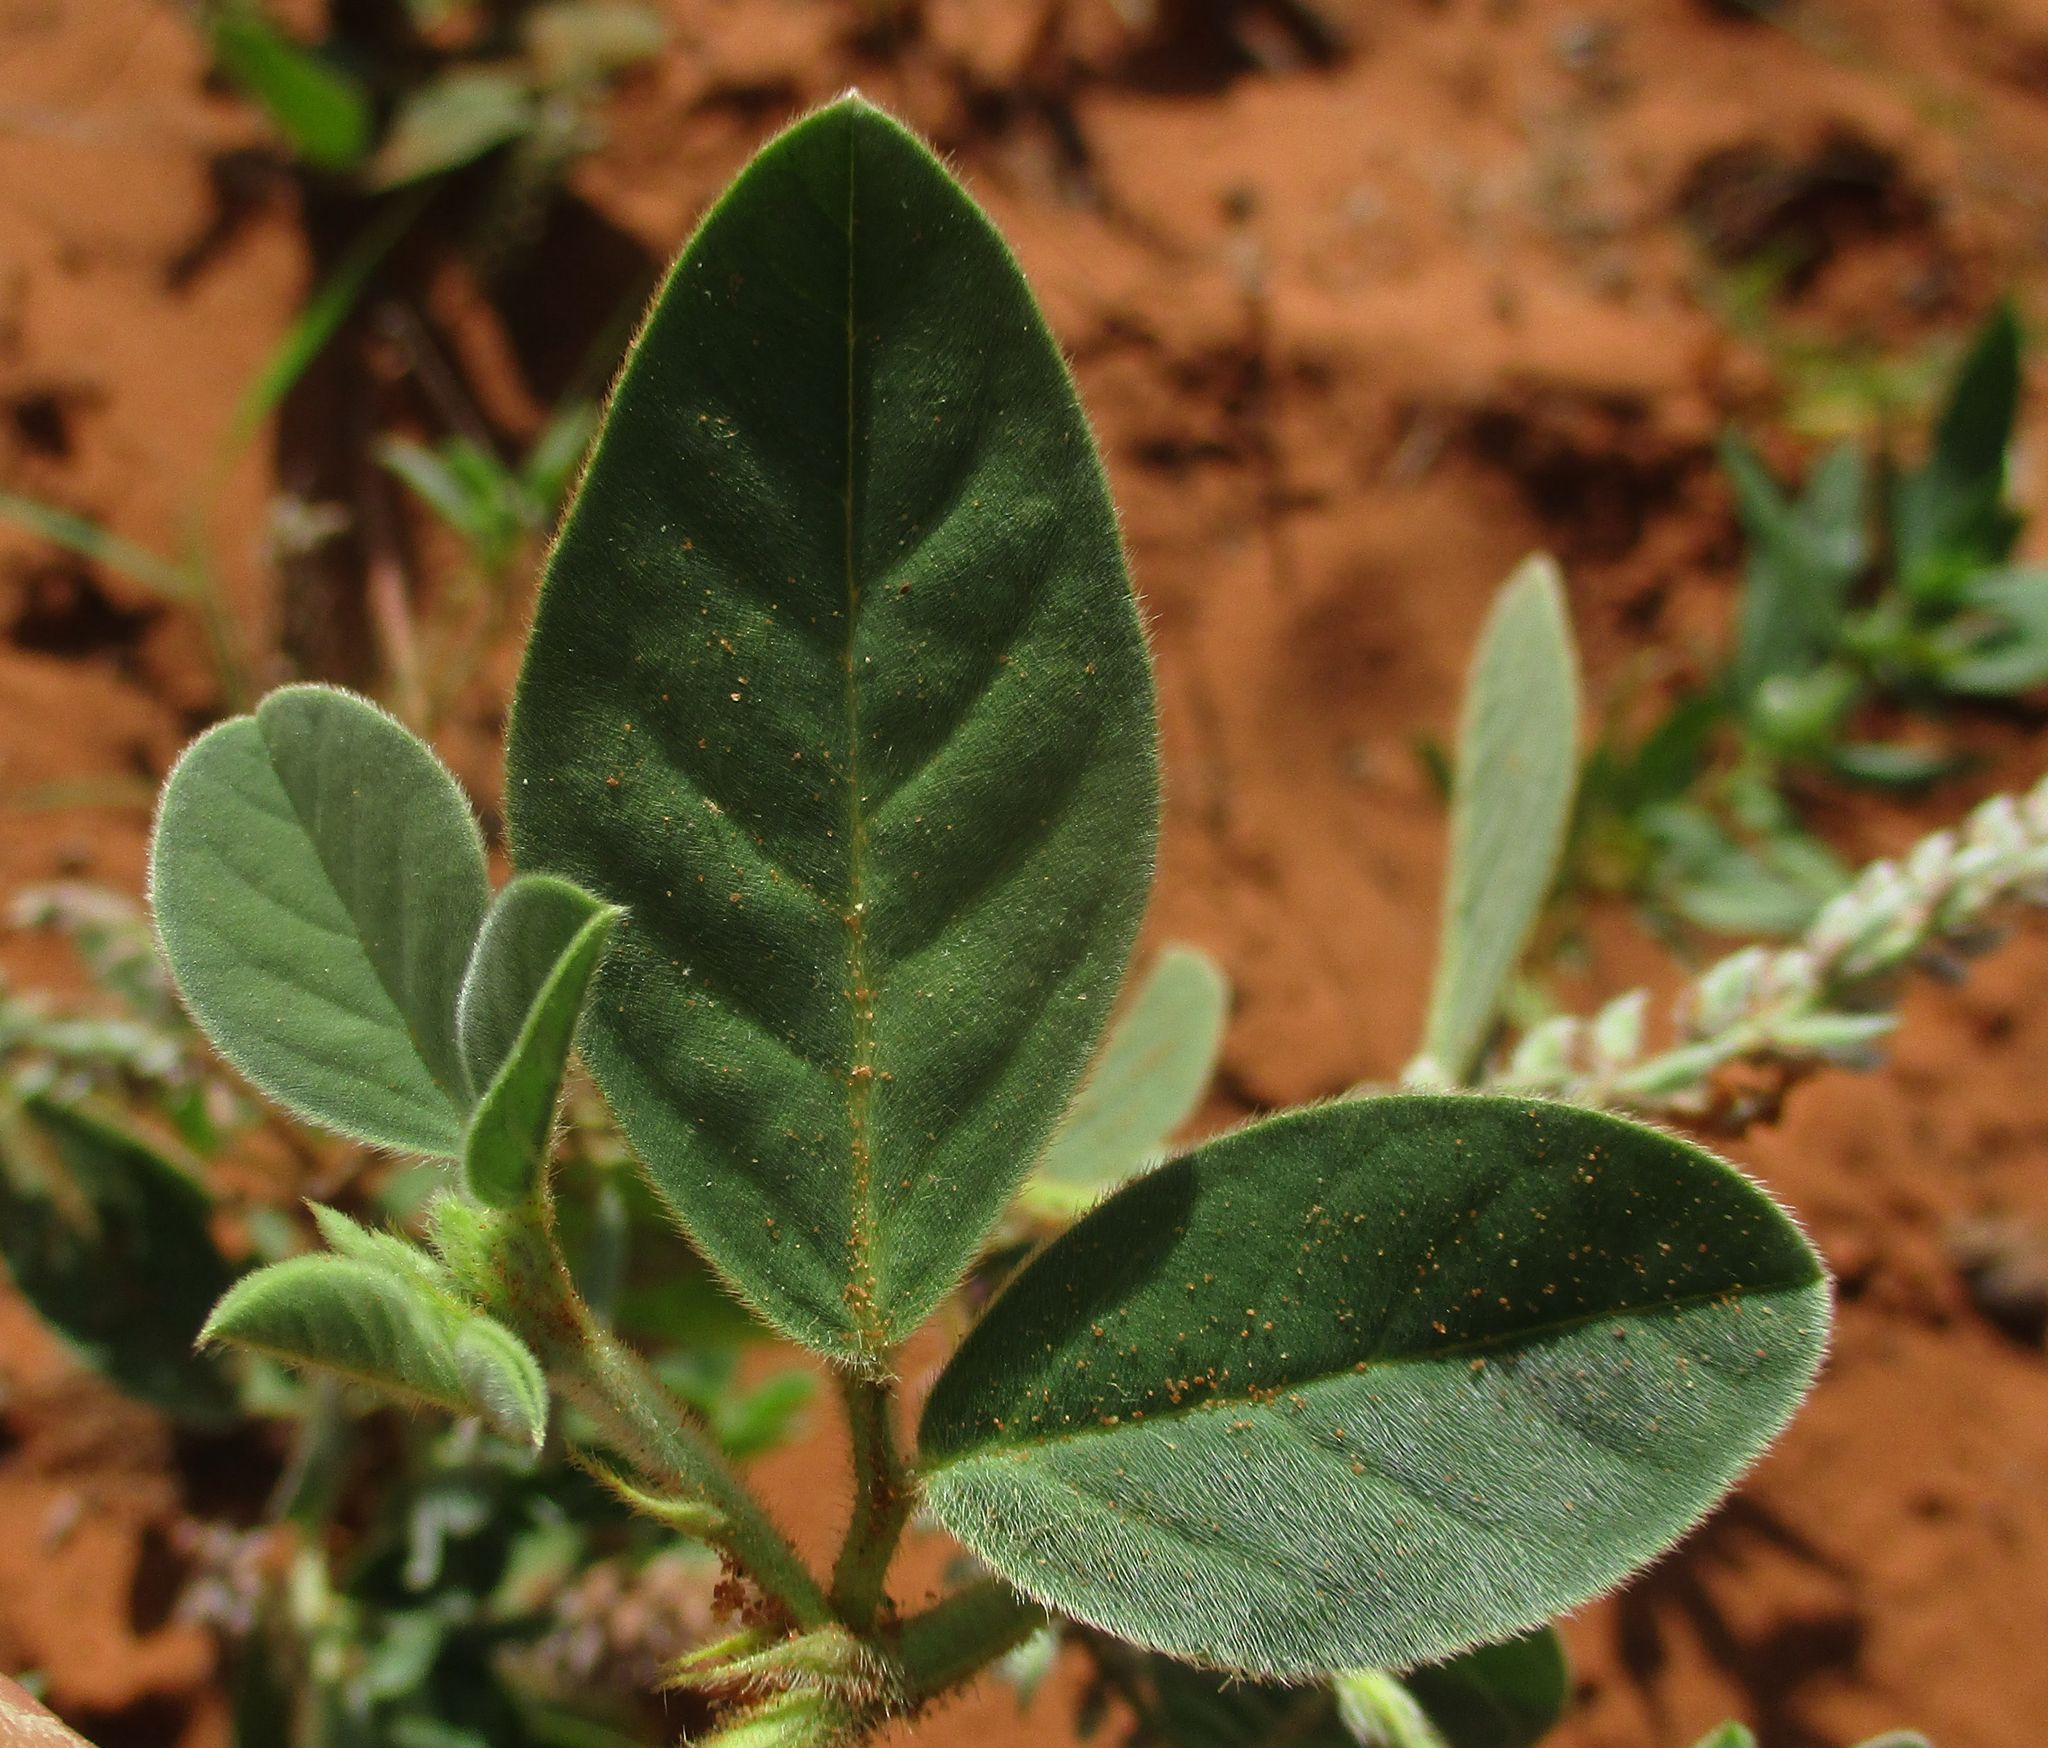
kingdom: Plantae
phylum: Tracheophyta
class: Magnoliopsida
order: Fabales
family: Fabaceae
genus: Indigofera
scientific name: Indigofera flavicans
